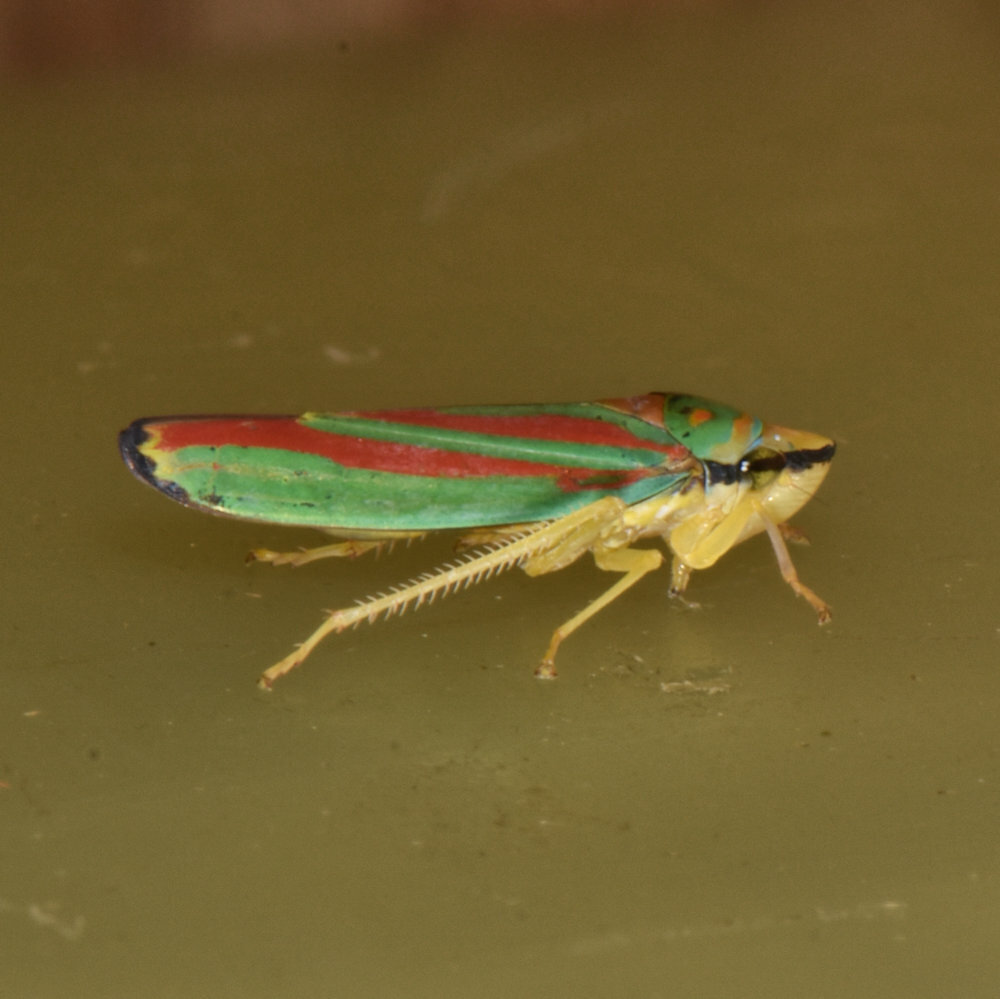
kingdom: Animalia
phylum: Arthropoda
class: Insecta
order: Hemiptera
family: Cicadellidae
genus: Graphocephala
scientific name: Graphocephala fennahi
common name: Rhododendron leafhopper
